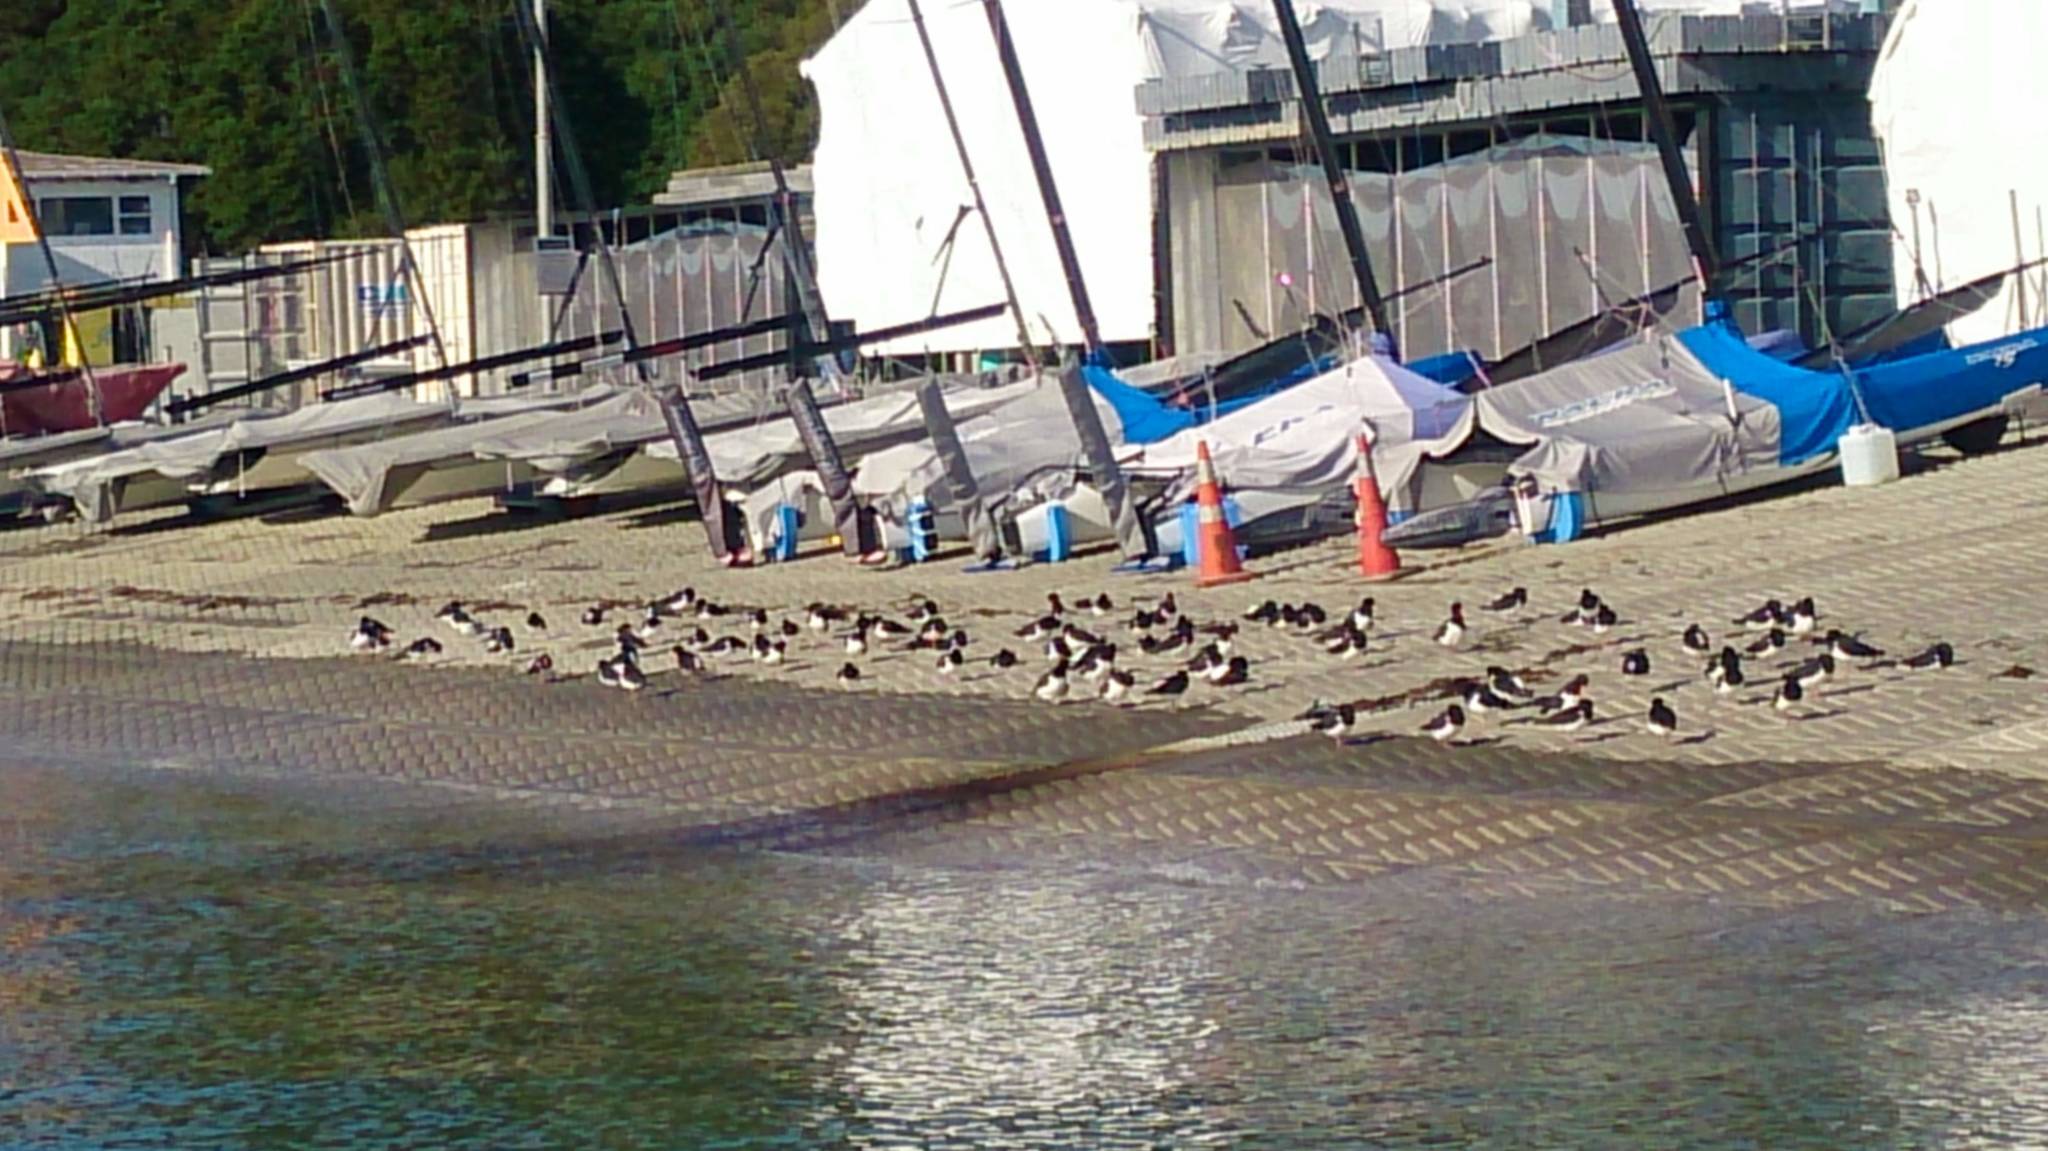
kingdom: Animalia
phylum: Chordata
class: Aves
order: Charadriiformes
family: Haematopodidae
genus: Haematopus
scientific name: Haematopus finschi
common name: South island oystercatcher
